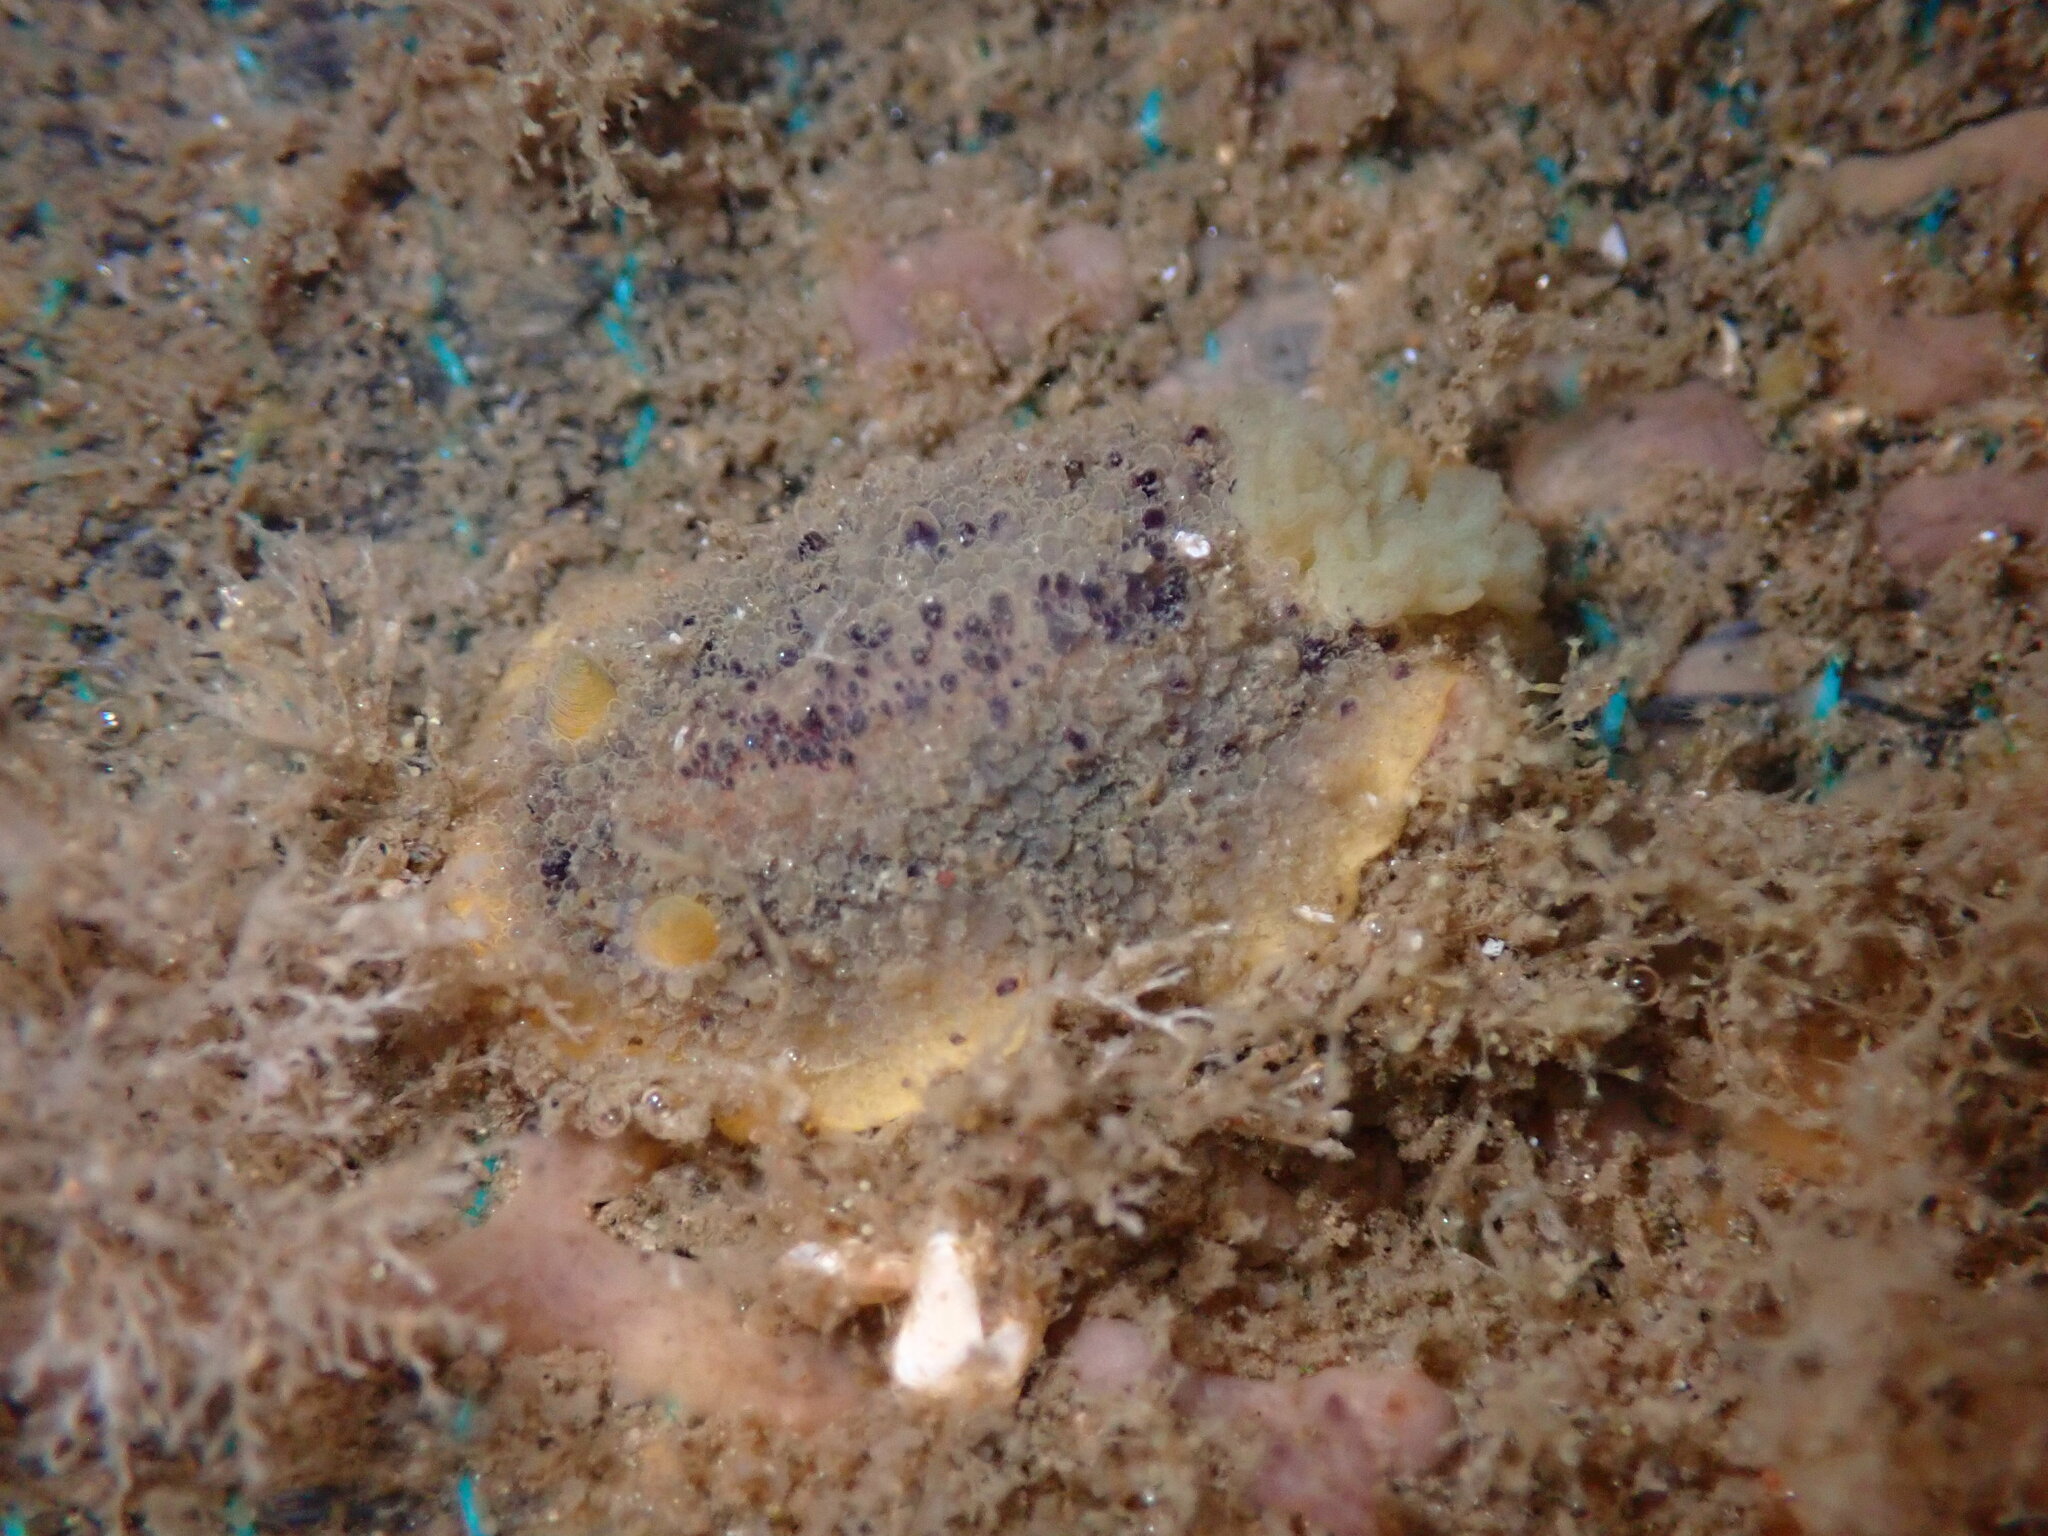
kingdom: Animalia
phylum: Mollusca
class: Gastropoda
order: Nudibranchia
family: Dorididae
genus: Doris
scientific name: Doris montereyensis
